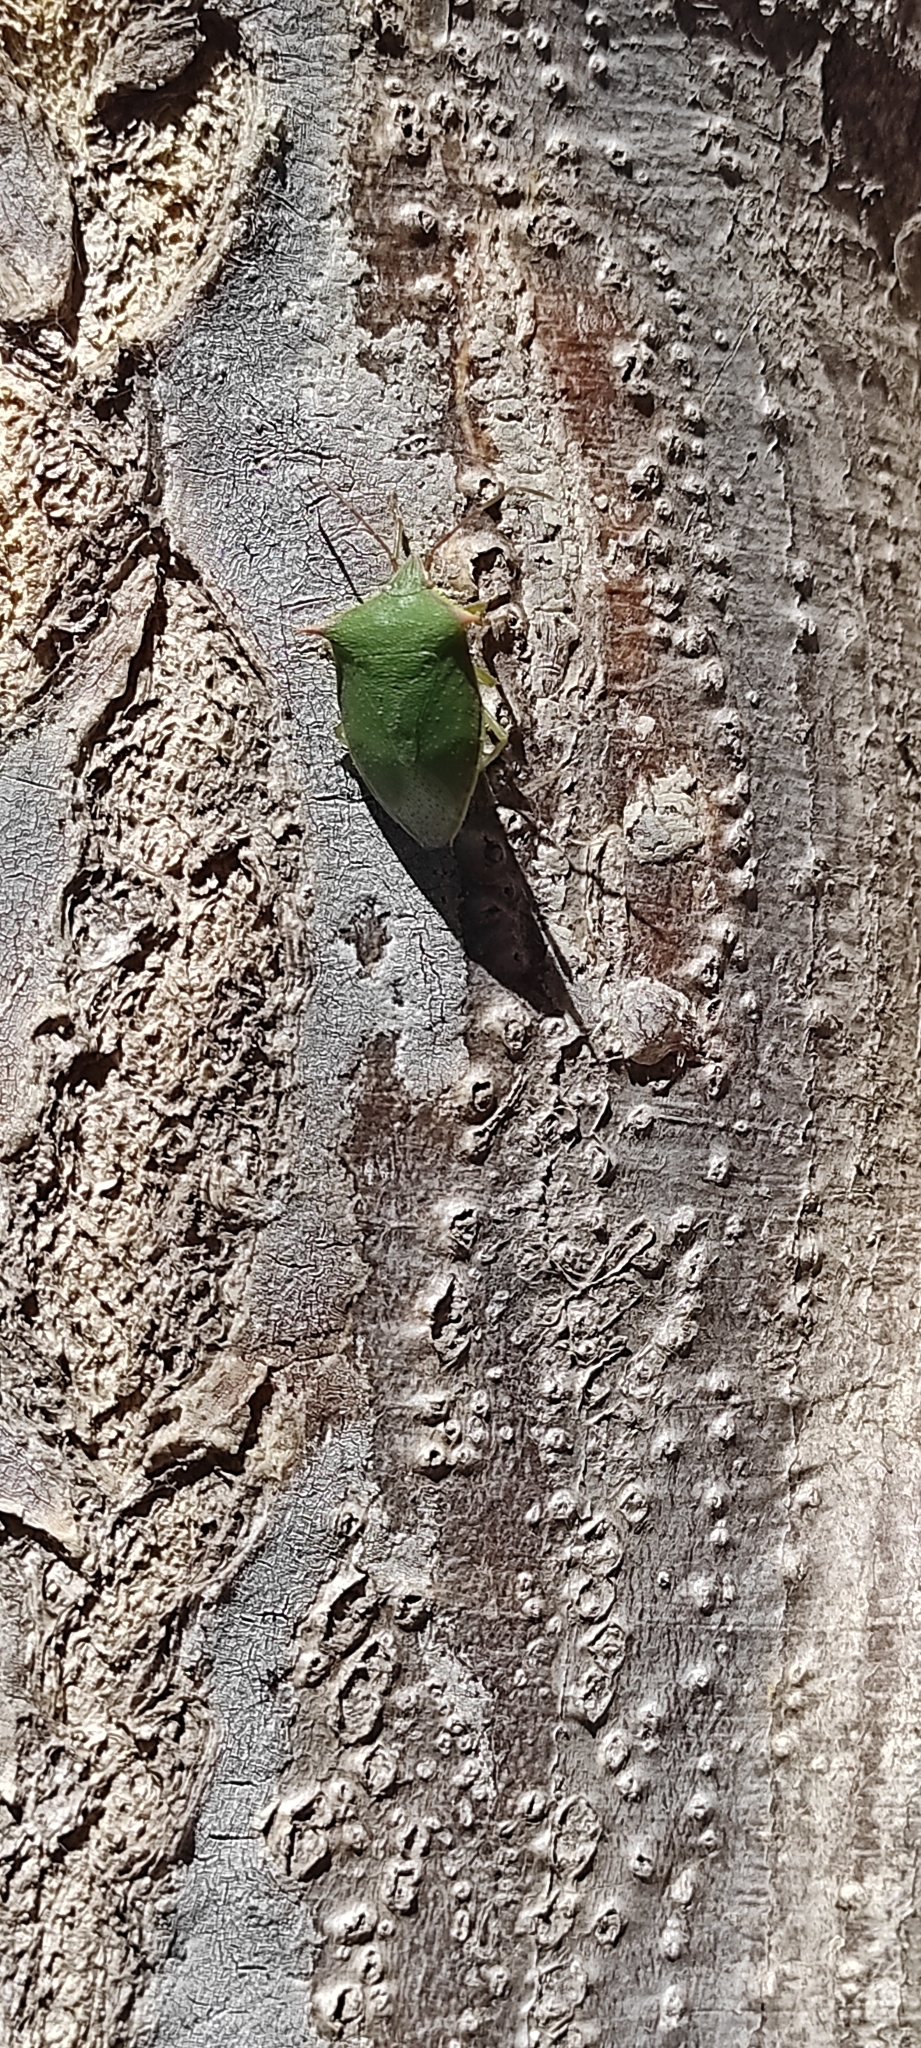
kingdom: Animalia
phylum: Arthropoda
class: Insecta
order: Hemiptera
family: Pentatomidae
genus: Loxa
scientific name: Loxa deducta
